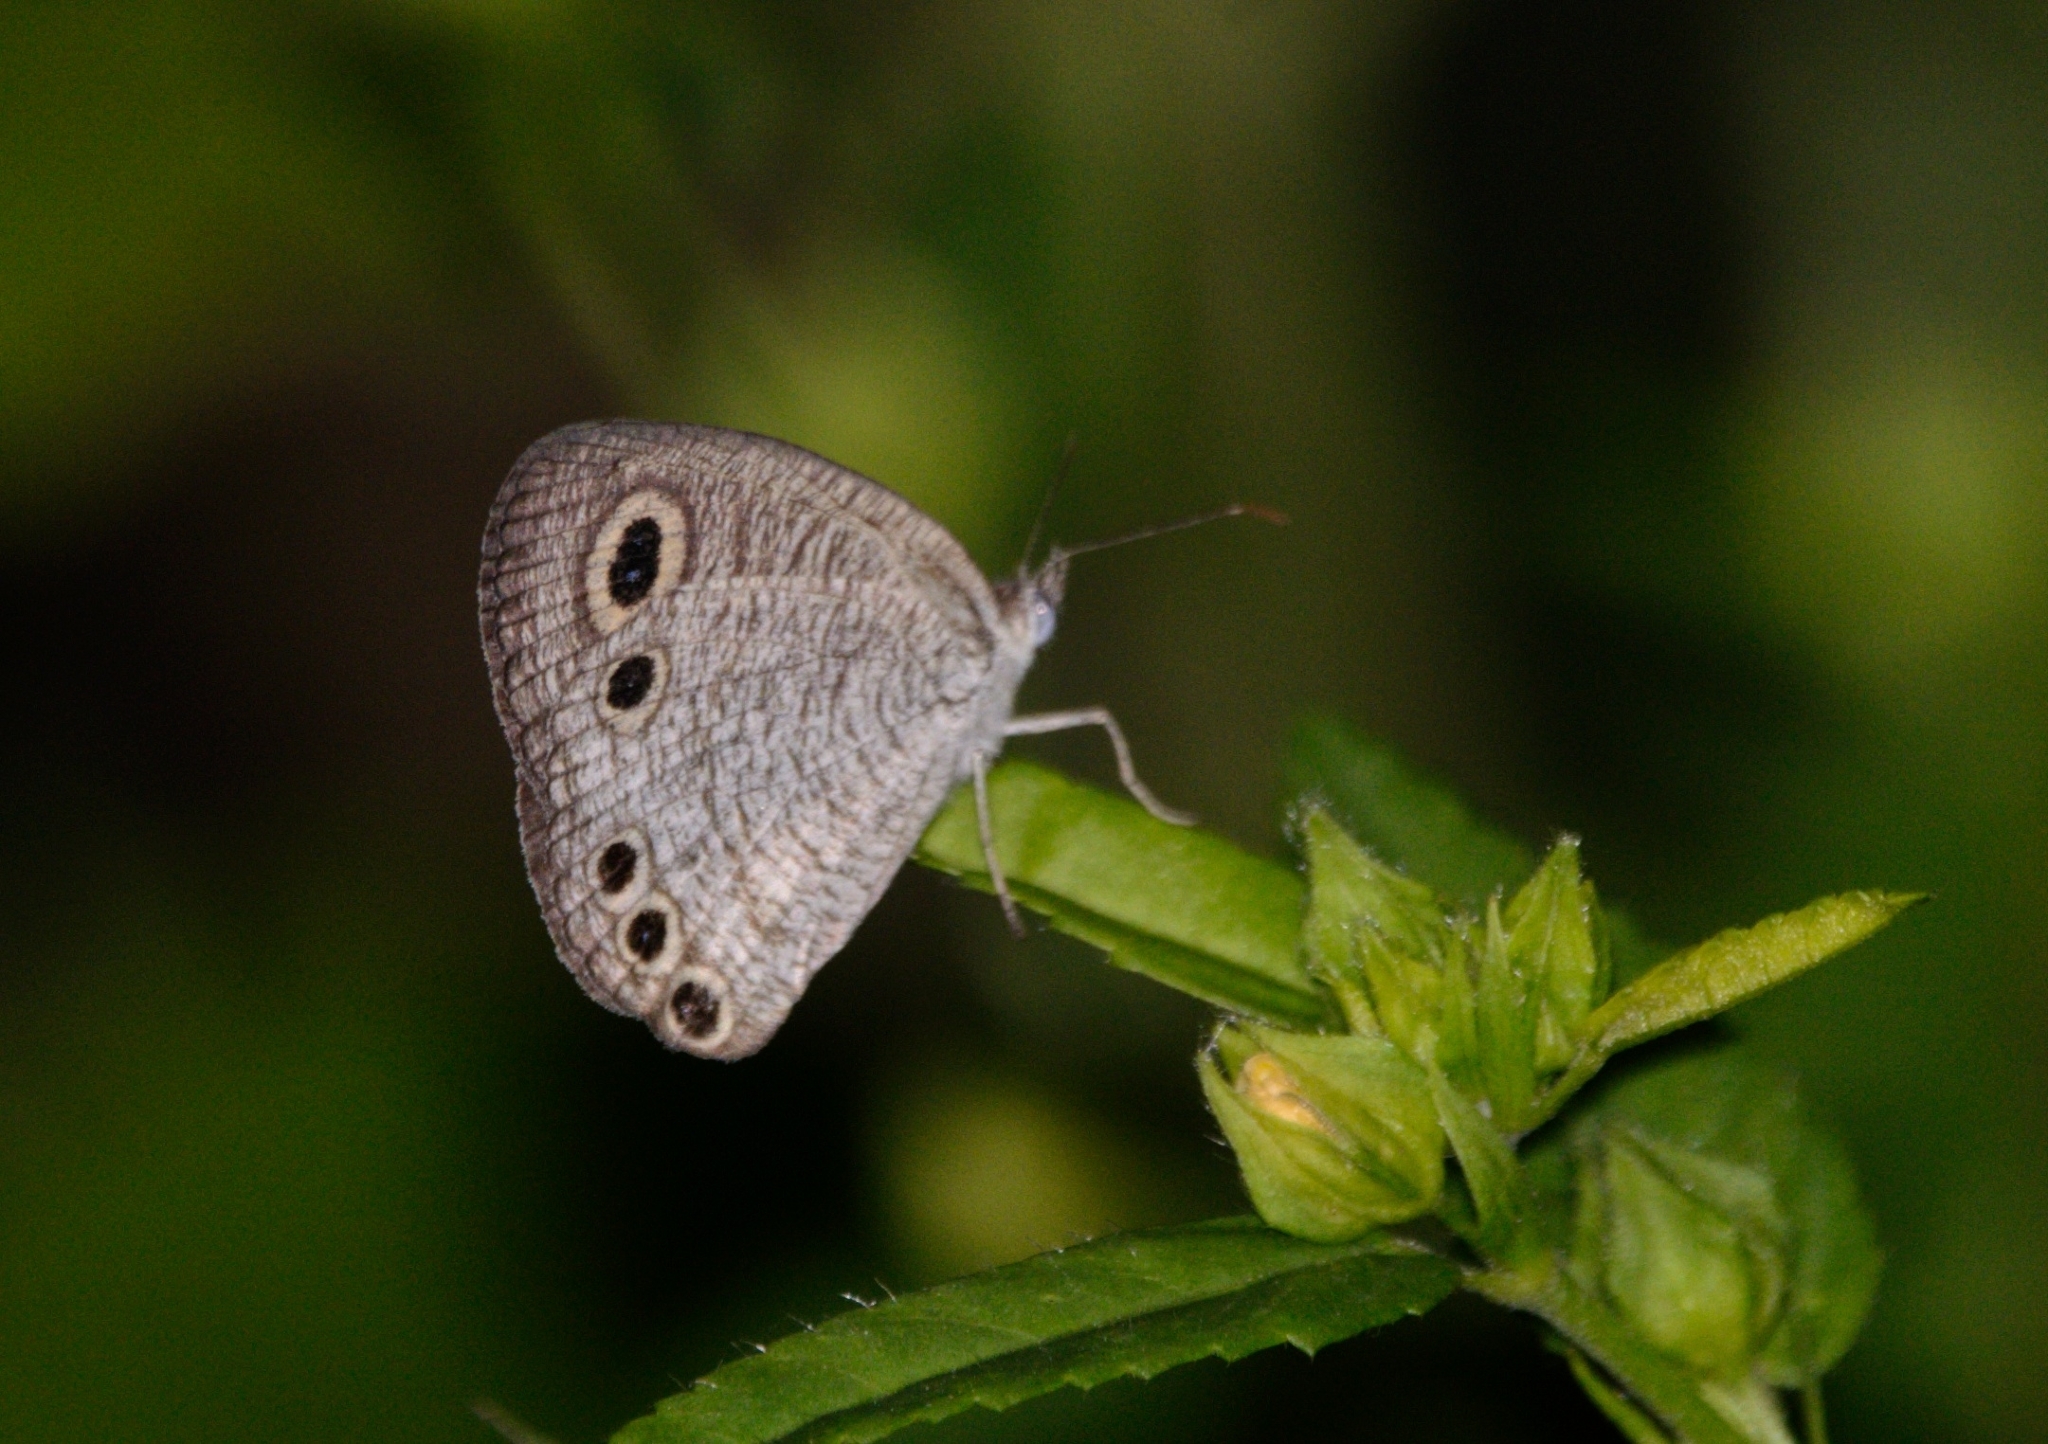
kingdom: Animalia
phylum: Arthropoda
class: Insecta
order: Lepidoptera
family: Nymphalidae
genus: Ypthima
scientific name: Ypthima huebneri
